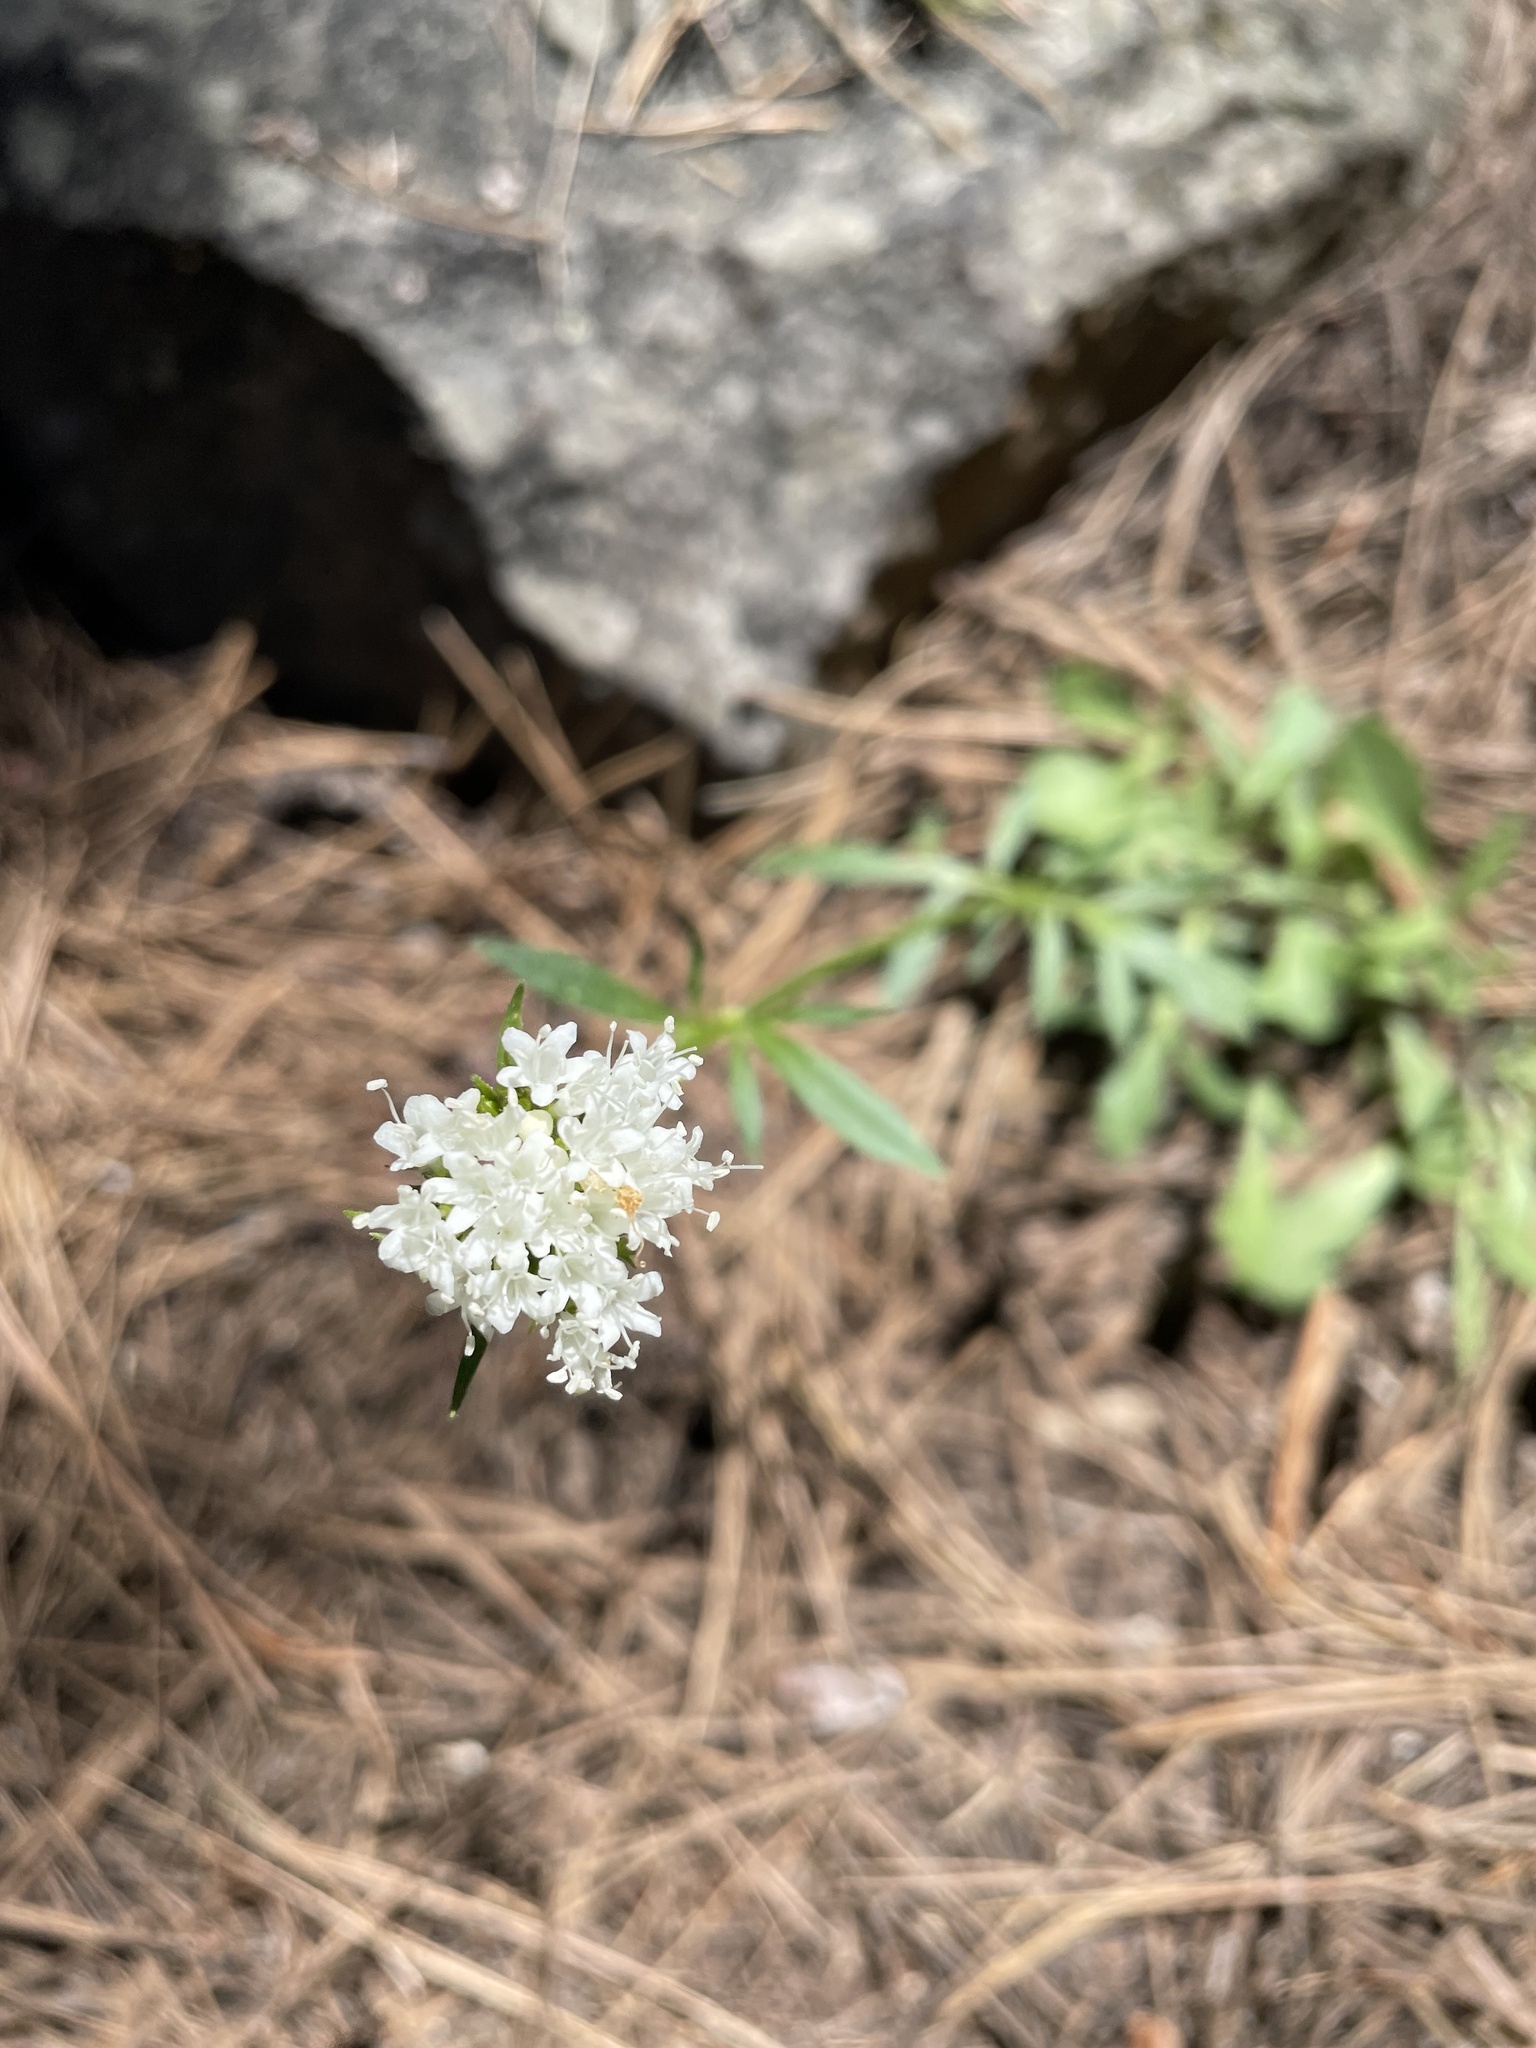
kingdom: Plantae
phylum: Tracheophyta
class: Magnoliopsida
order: Dipsacales
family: Caprifoliaceae
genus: Valeriana
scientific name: Valeriana californica
